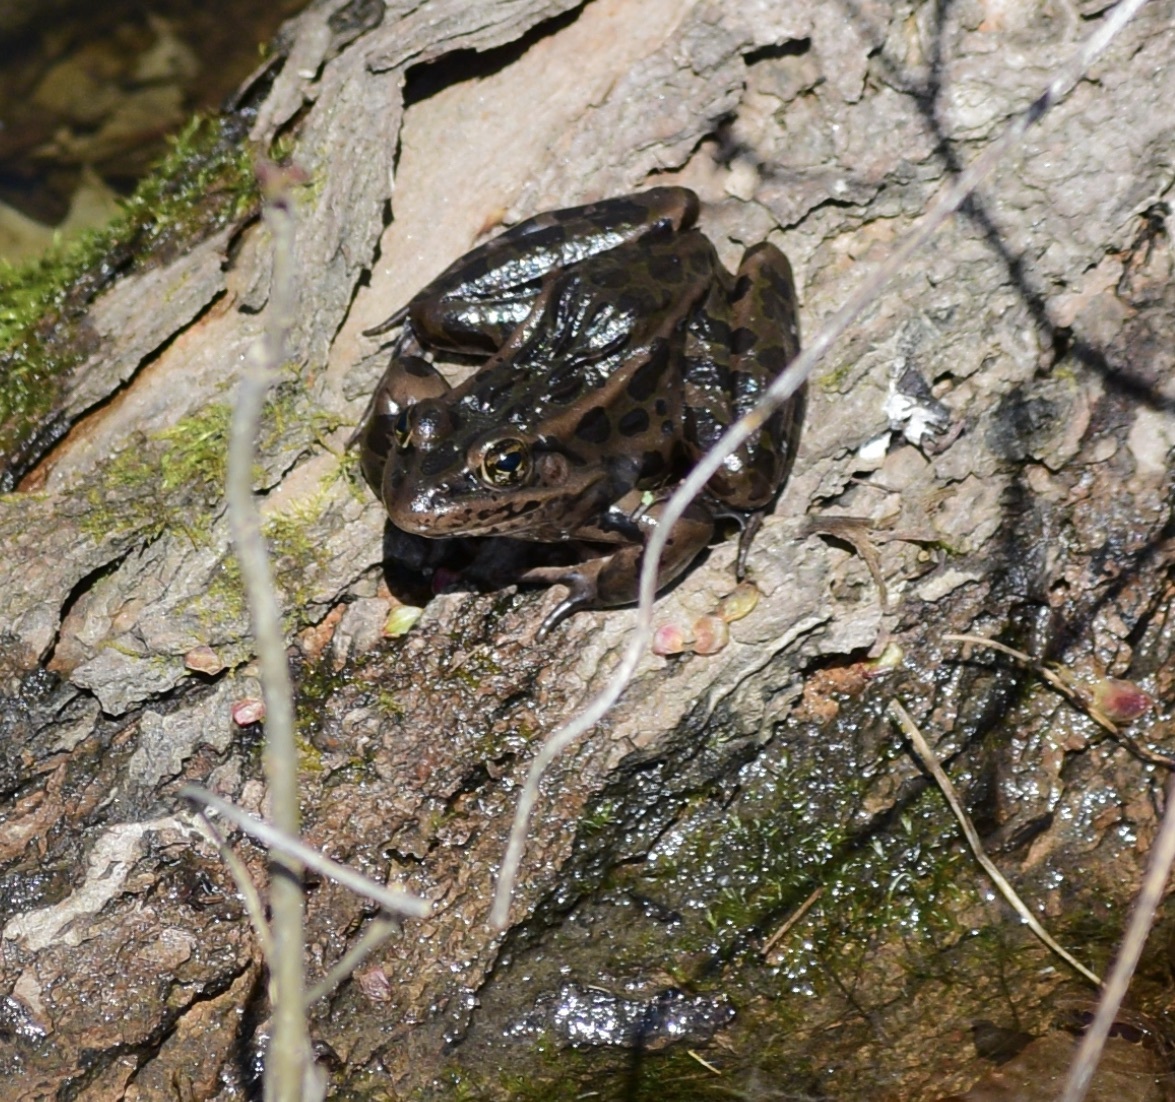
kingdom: Animalia
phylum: Chordata
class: Amphibia
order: Anura
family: Ranidae
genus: Lithobates
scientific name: Lithobates pipiens
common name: Northern leopard frog
